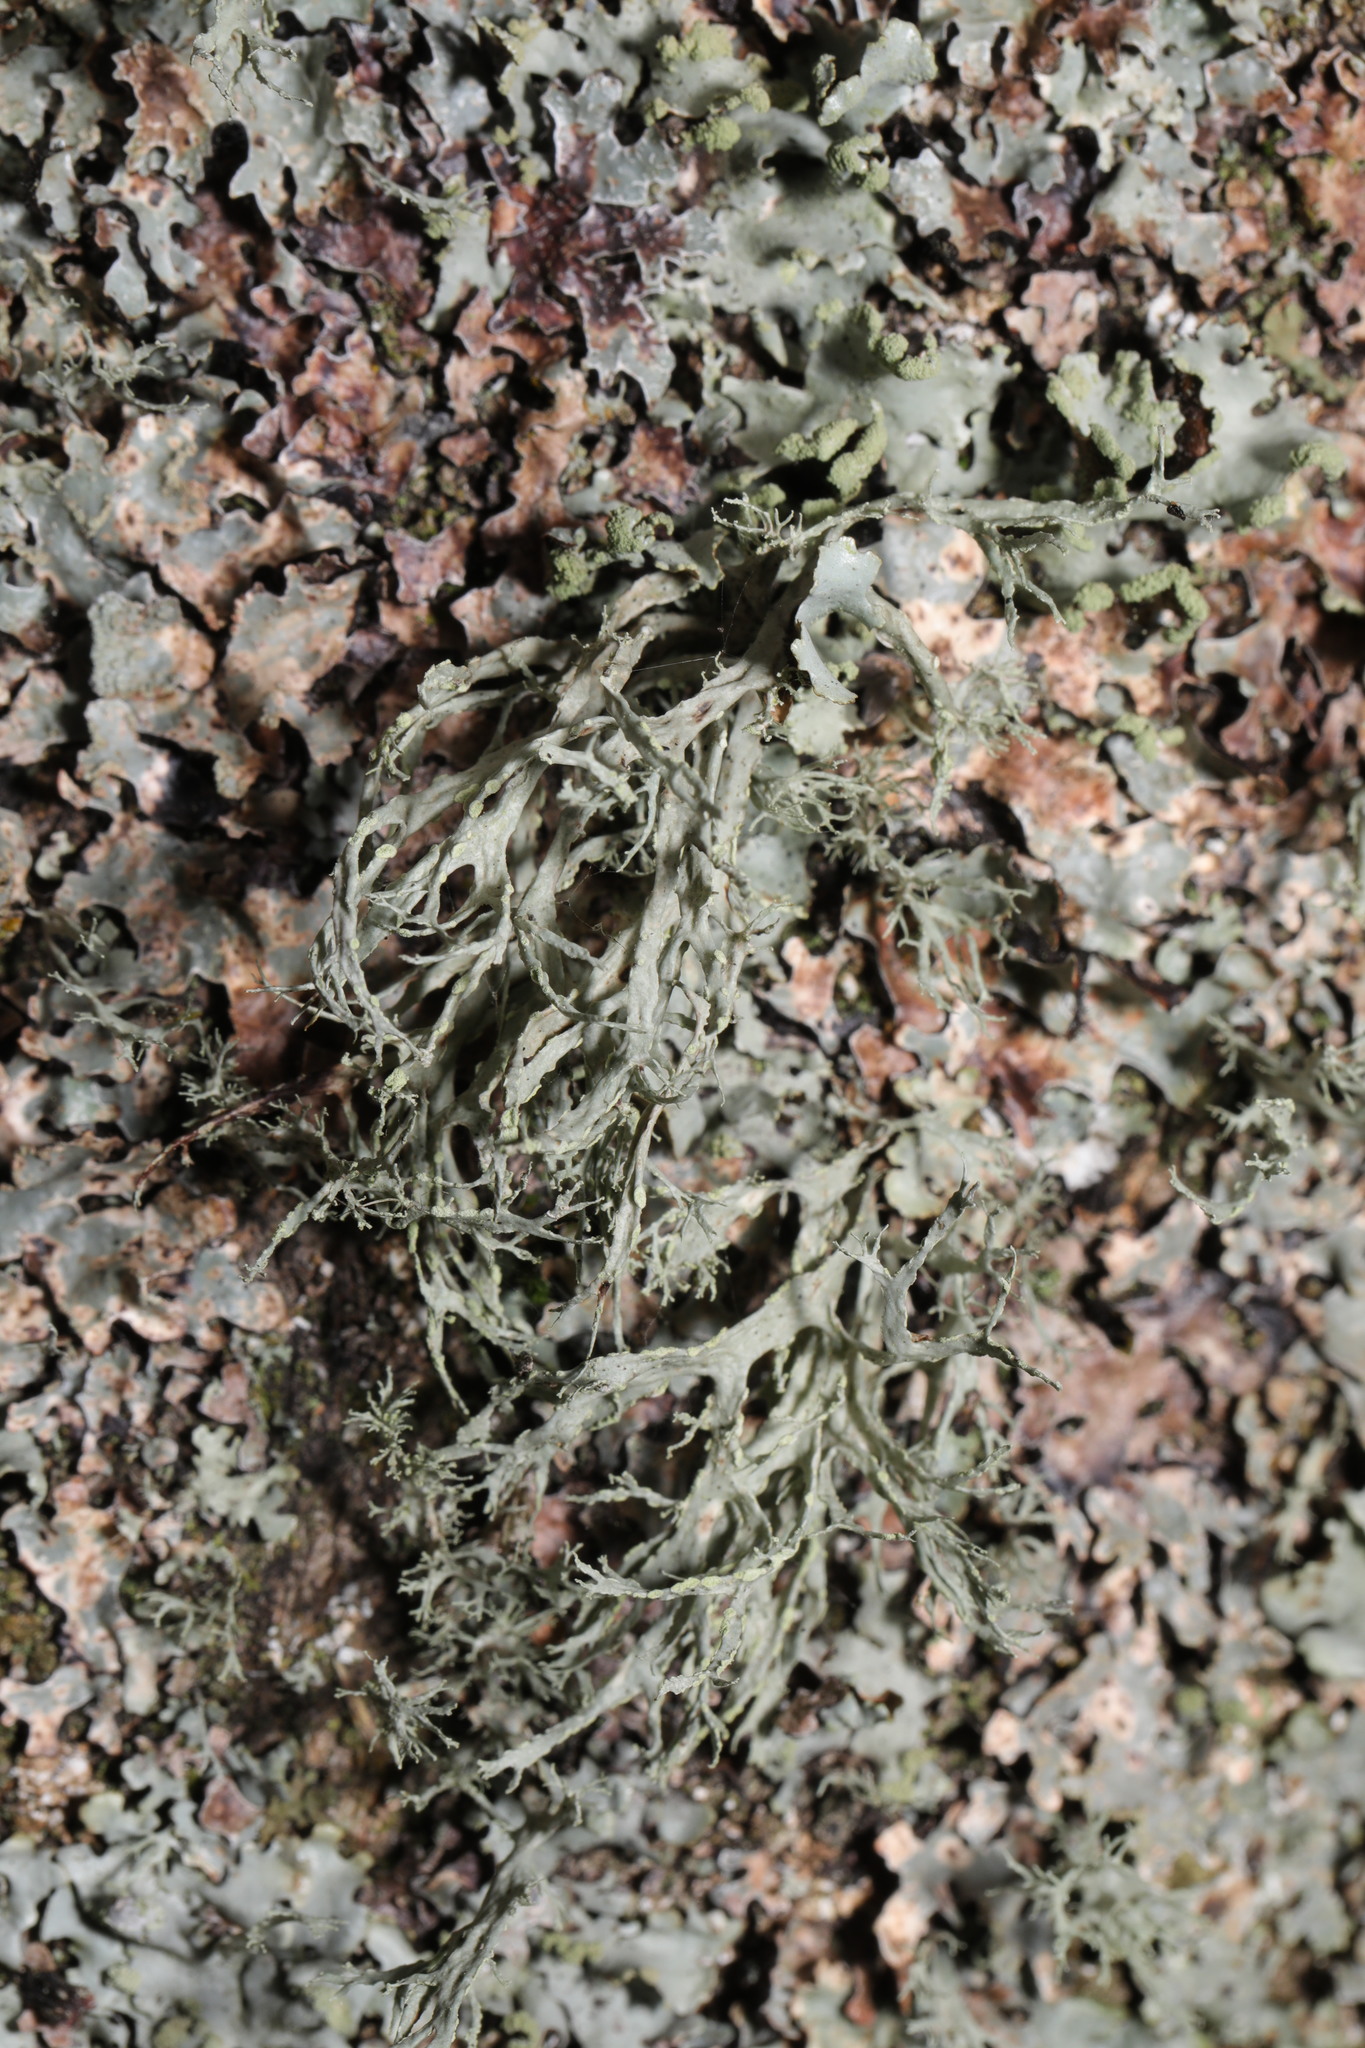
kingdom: Fungi
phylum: Ascomycota
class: Lecanoromycetes
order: Lecanorales
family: Ramalinaceae
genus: Ramalina
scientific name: Ramalina farinacea
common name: Farinose cartilage lichen
